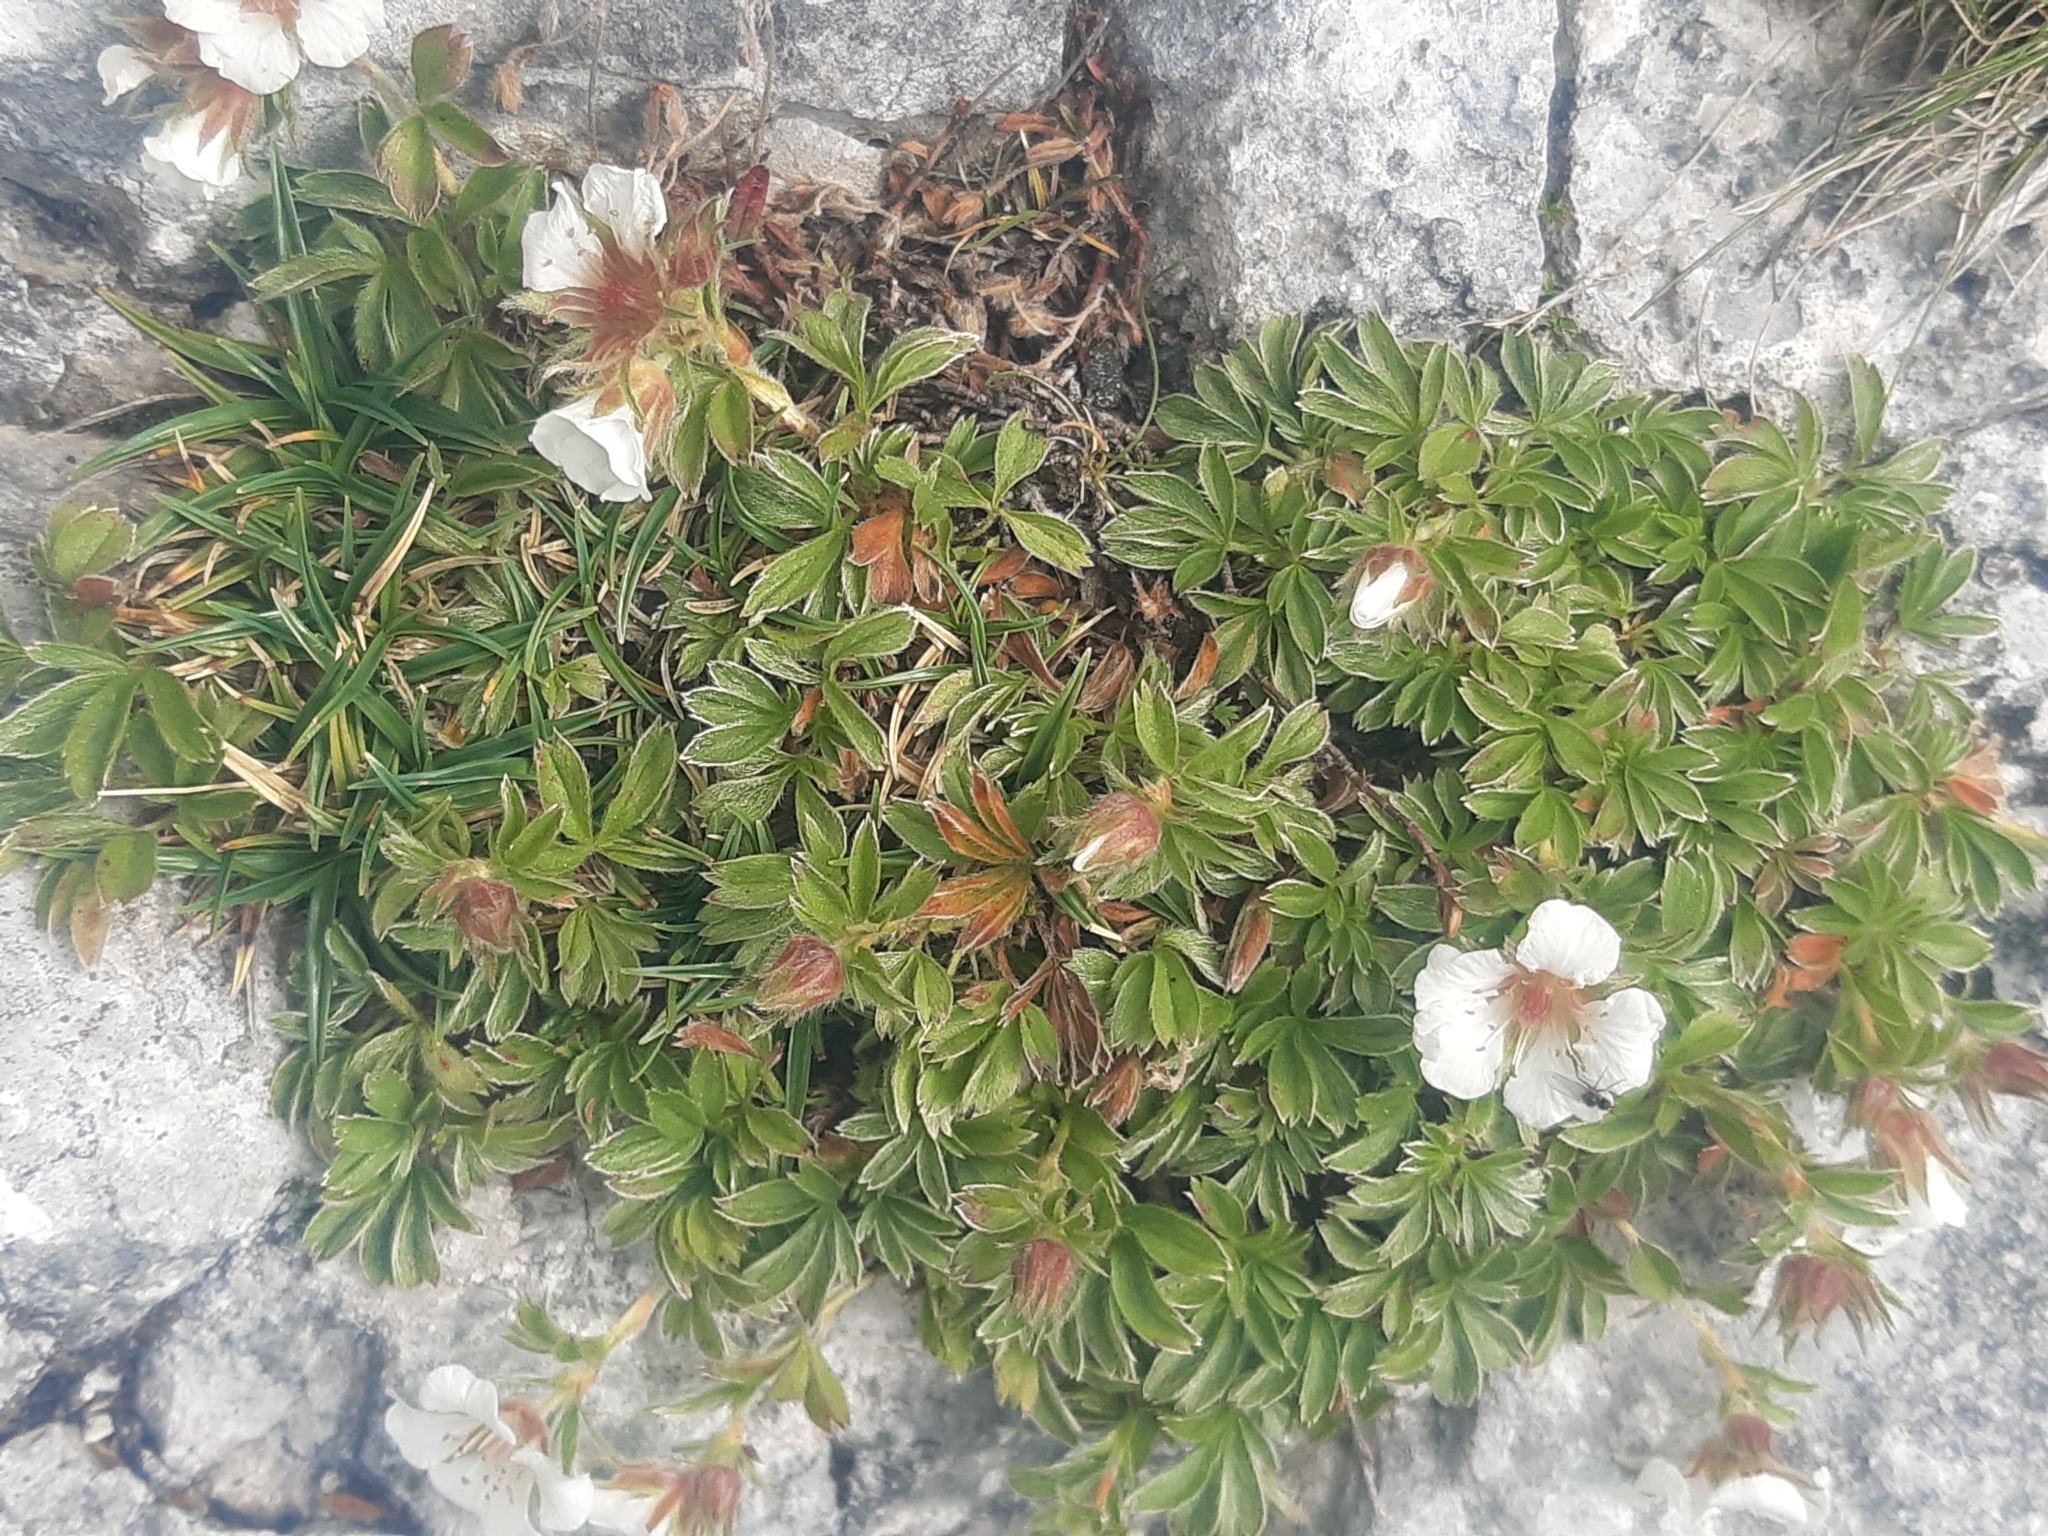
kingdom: Plantae
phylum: Tracheophyta
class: Magnoliopsida
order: Rosales
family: Rosaceae
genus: Potentilla
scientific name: Potentilla clusiana
